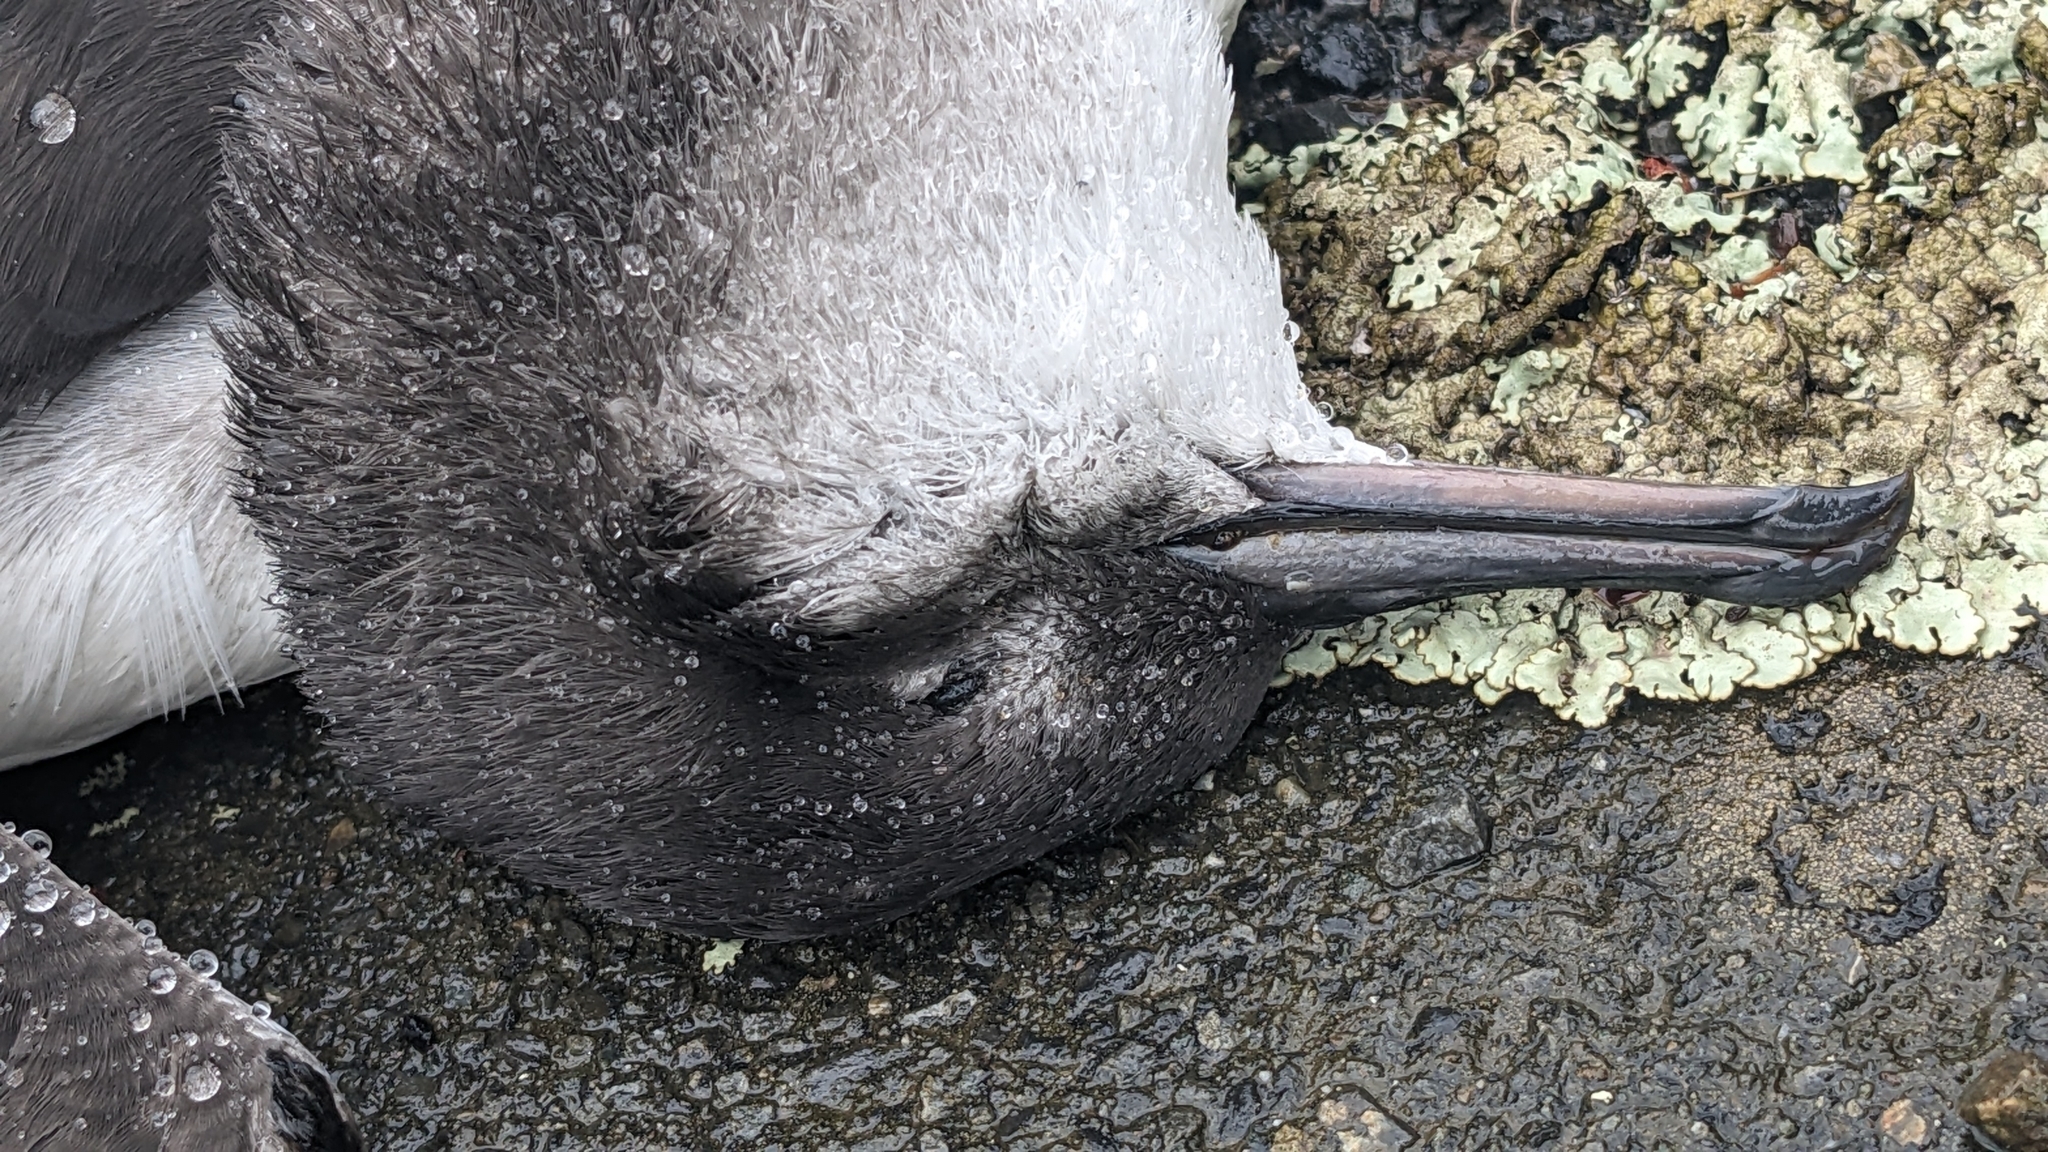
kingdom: Animalia
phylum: Chordata
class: Aves
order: Procellariiformes
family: Procellariidae
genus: Puffinus
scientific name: Puffinus gavia
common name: Fluttering shearwater
